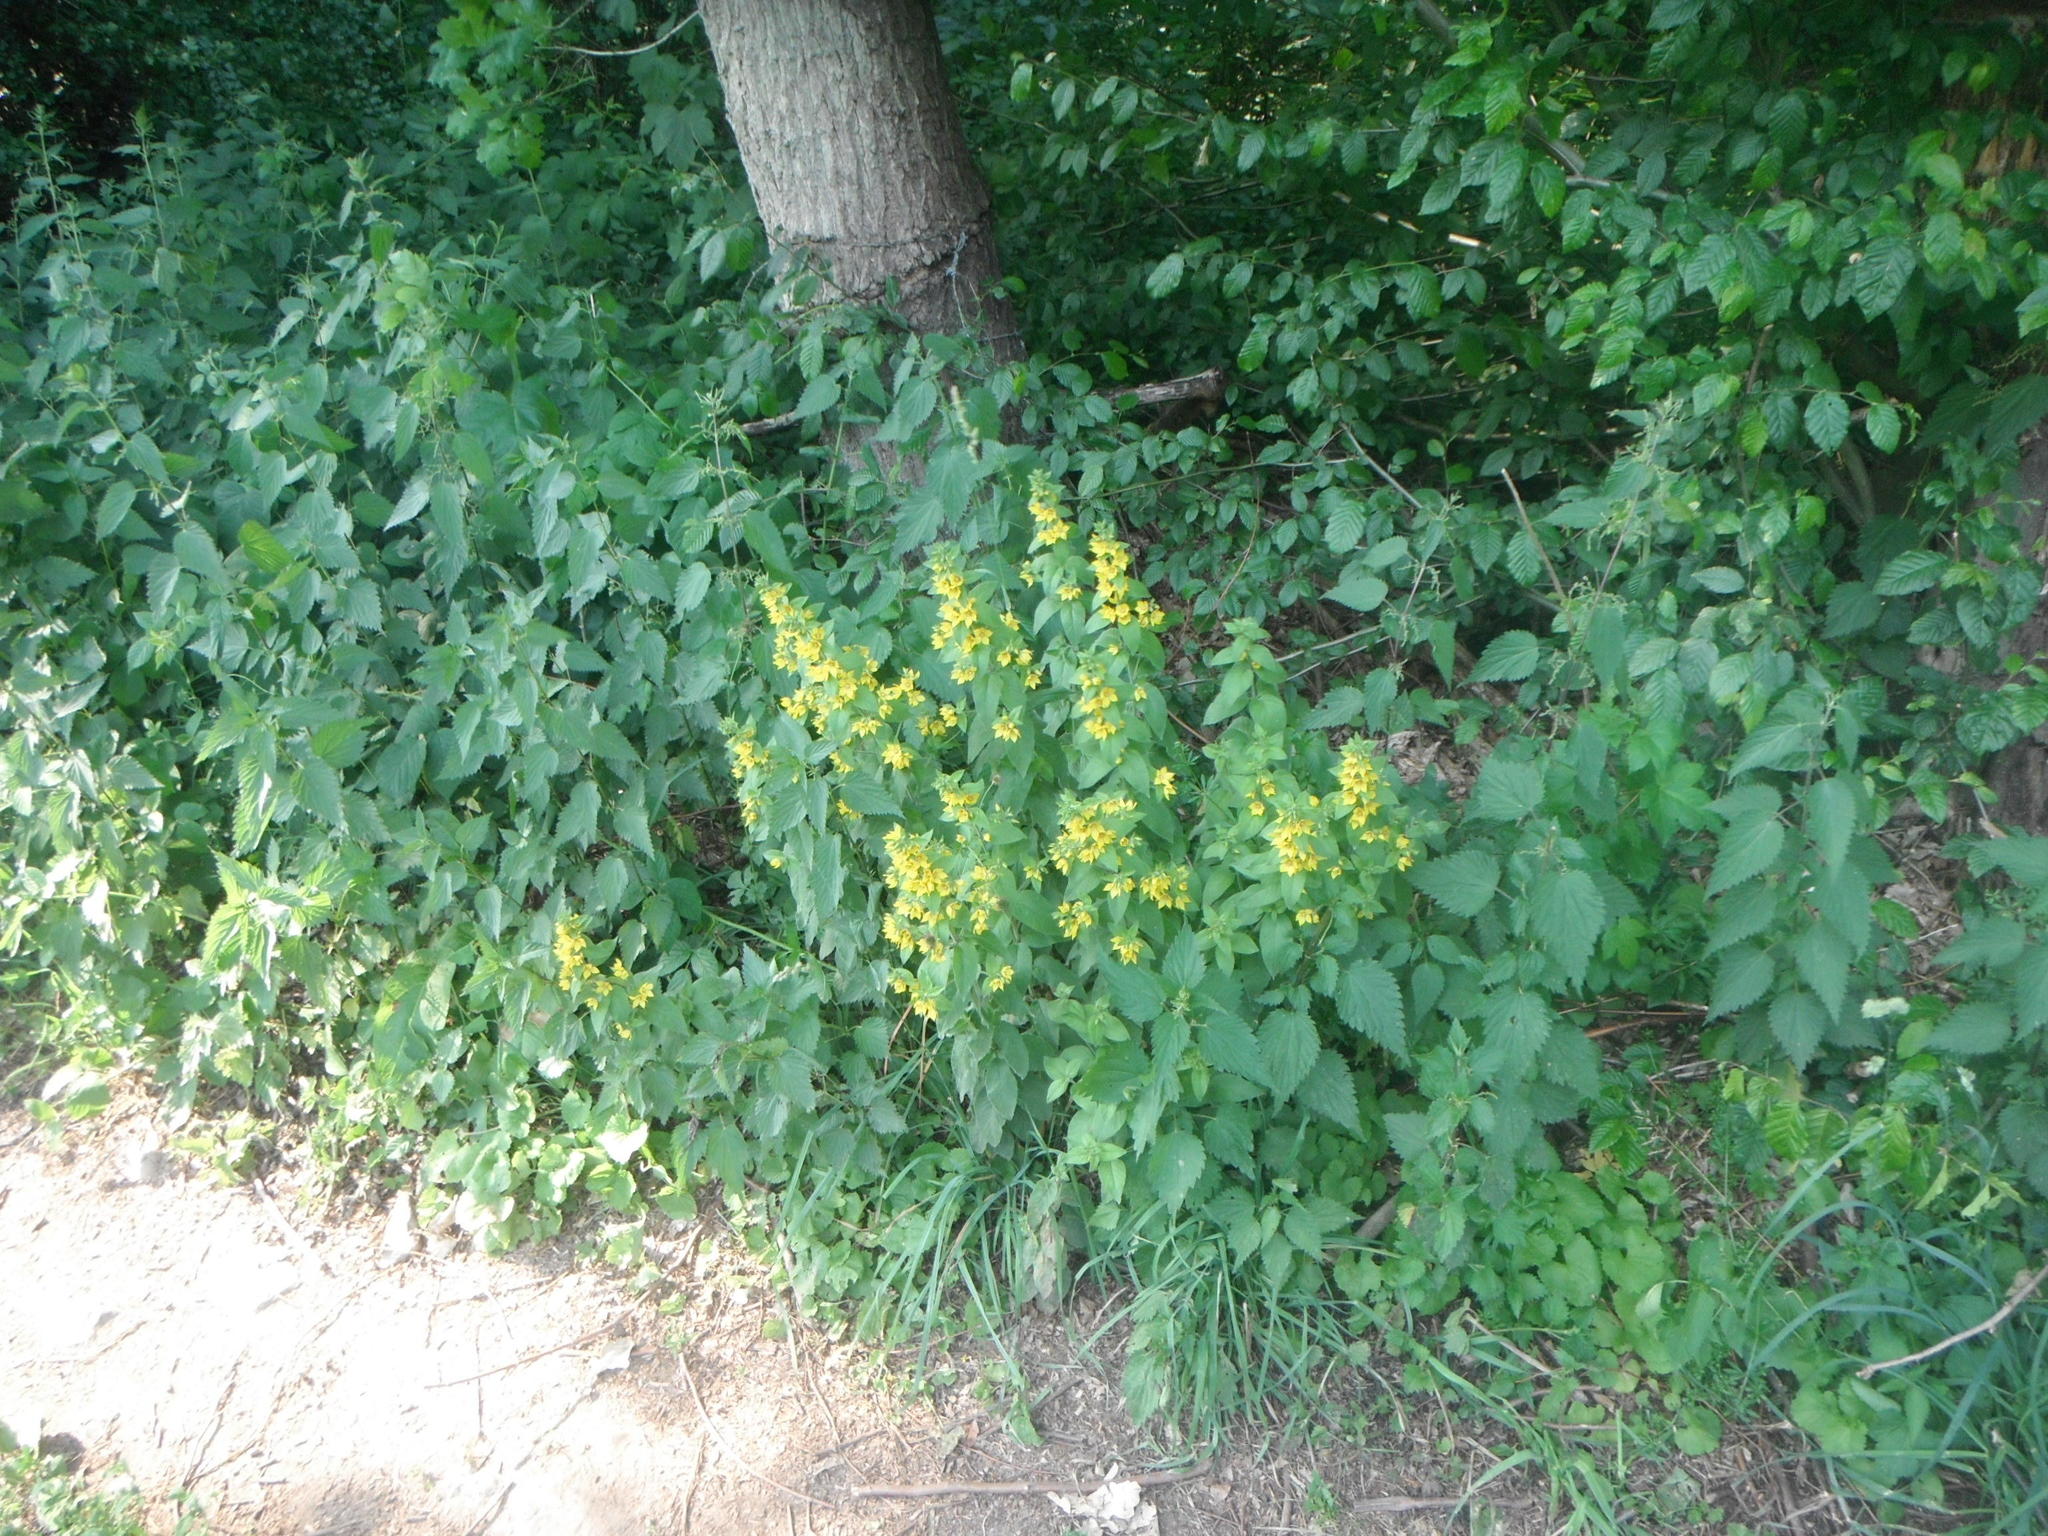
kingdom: Plantae
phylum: Tracheophyta
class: Magnoliopsida
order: Ericales
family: Primulaceae
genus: Lysimachia
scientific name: Lysimachia punctata
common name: Dotted loosestrife
